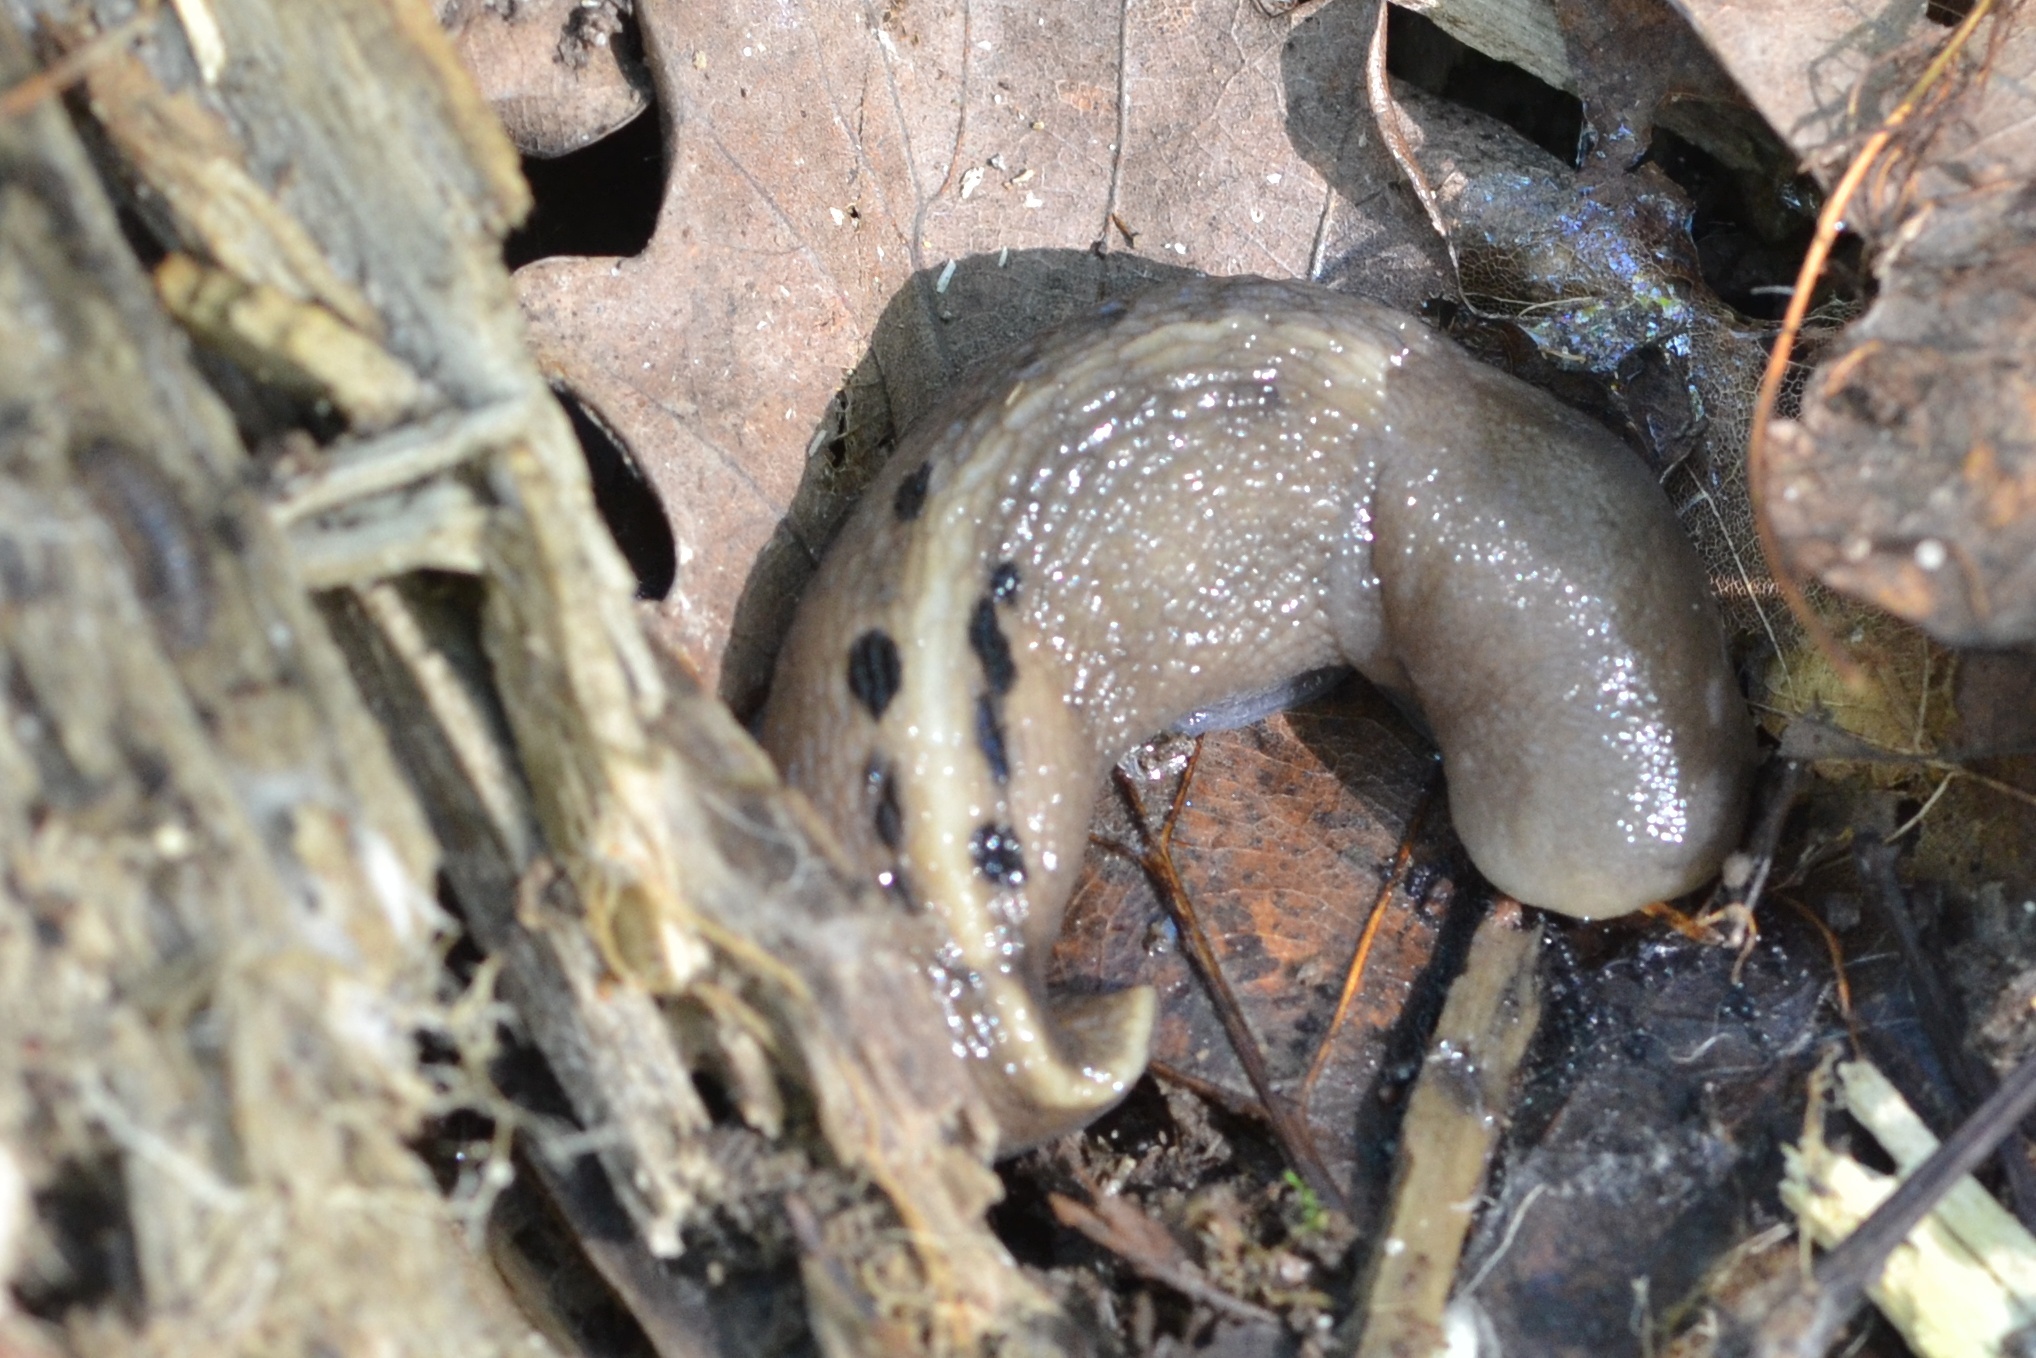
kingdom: Animalia
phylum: Mollusca
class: Gastropoda
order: Stylommatophora
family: Limacidae
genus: Limax
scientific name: Limax cinereoniger
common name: Ash-black slug
